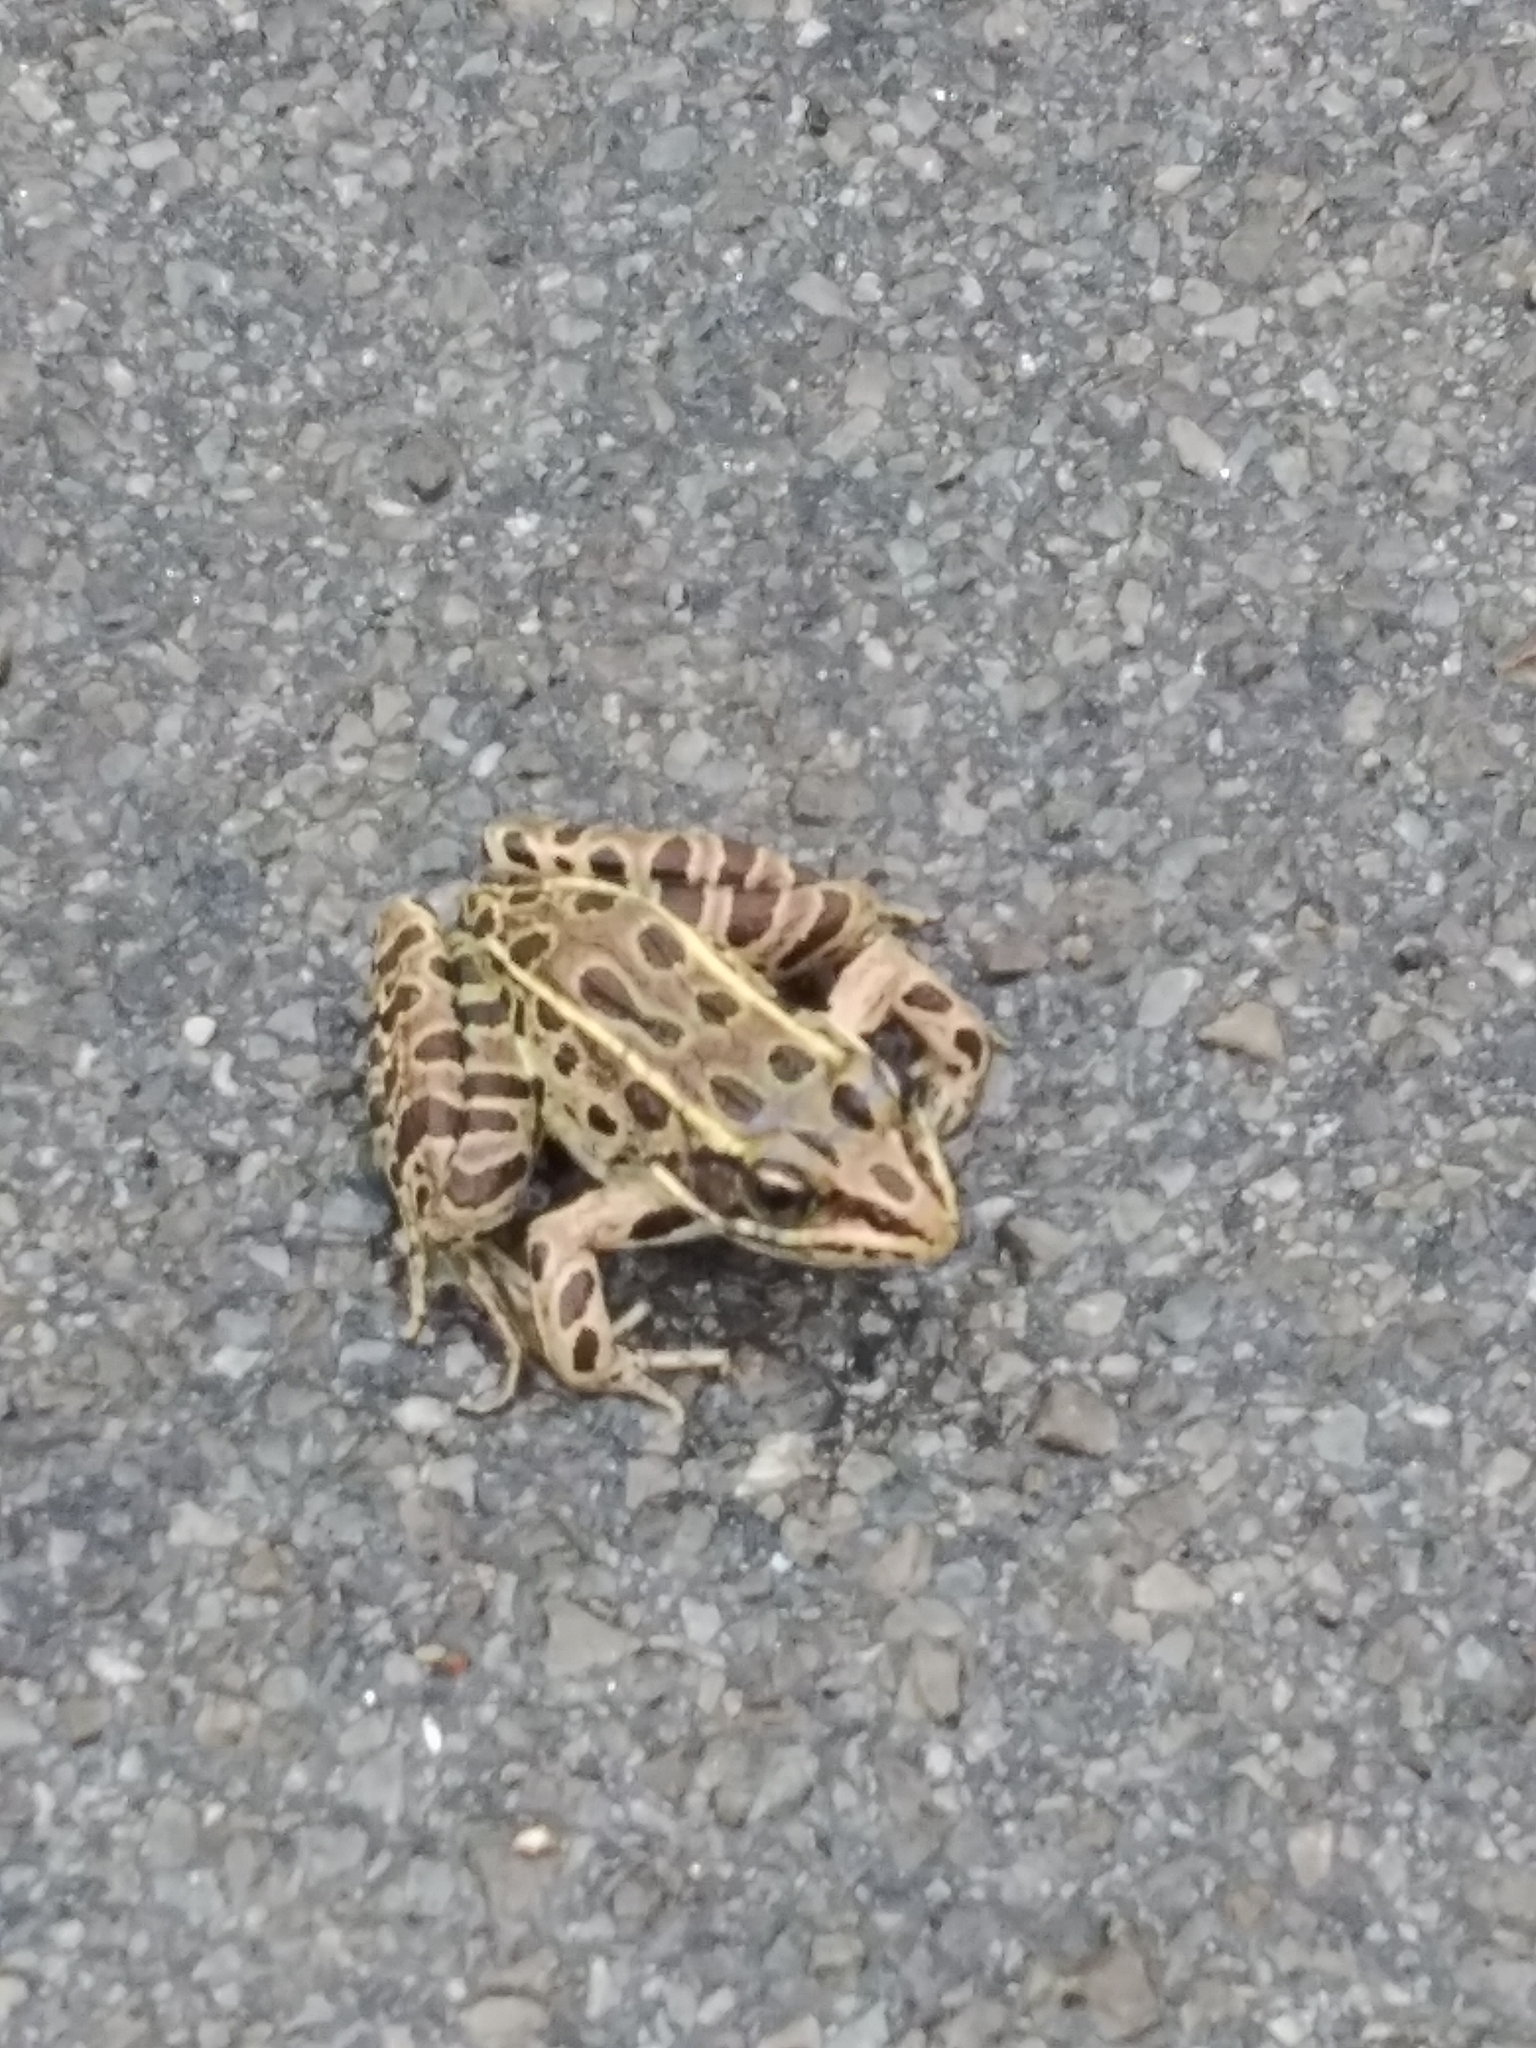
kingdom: Animalia
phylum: Chordata
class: Amphibia
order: Anura
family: Ranidae
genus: Lithobates
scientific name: Lithobates pipiens
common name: Northern leopard frog
